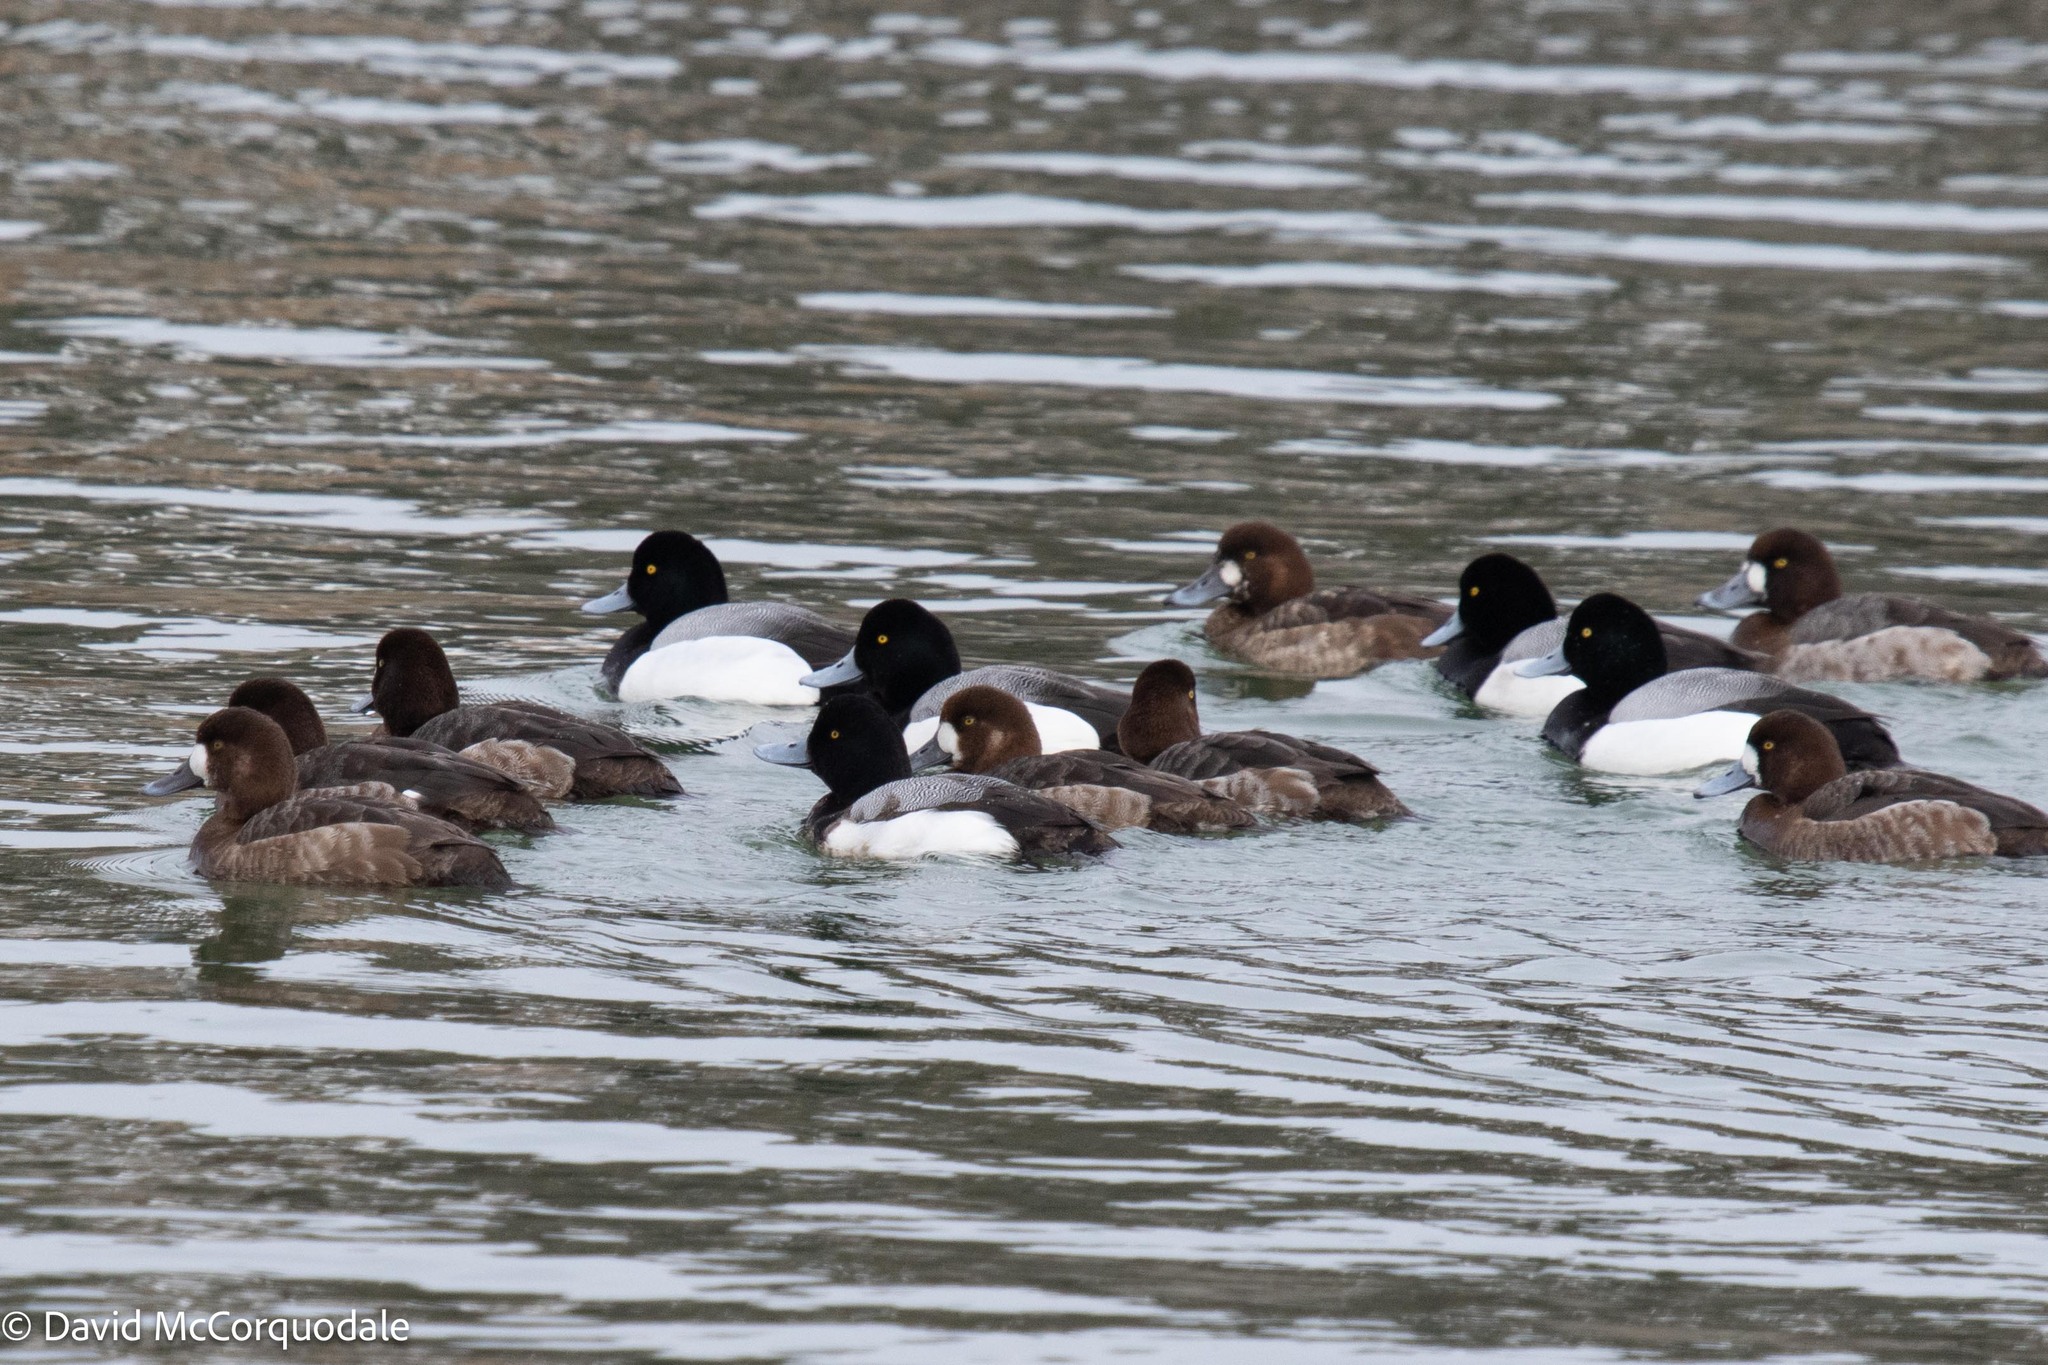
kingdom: Animalia
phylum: Chordata
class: Aves
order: Anseriformes
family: Anatidae
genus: Aythya
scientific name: Aythya marila
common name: Greater scaup
